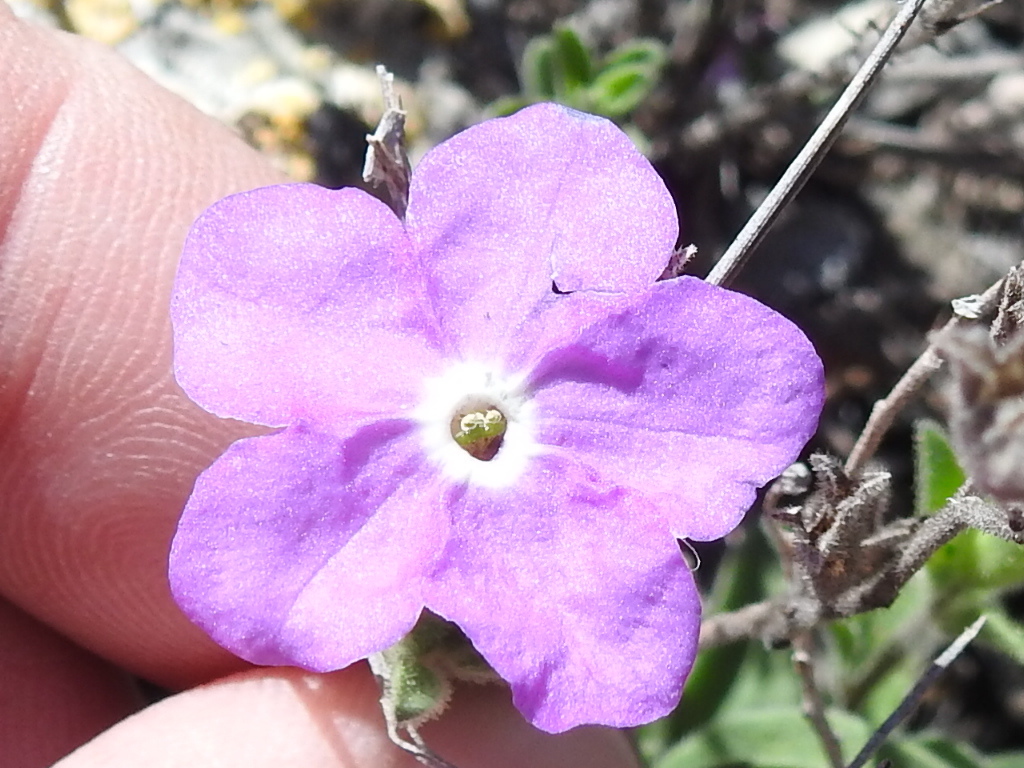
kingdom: Plantae
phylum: Tracheophyta
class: Magnoliopsida
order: Solanales
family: Solanaceae
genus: Hunzikeria
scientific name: Hunzikeria texana
